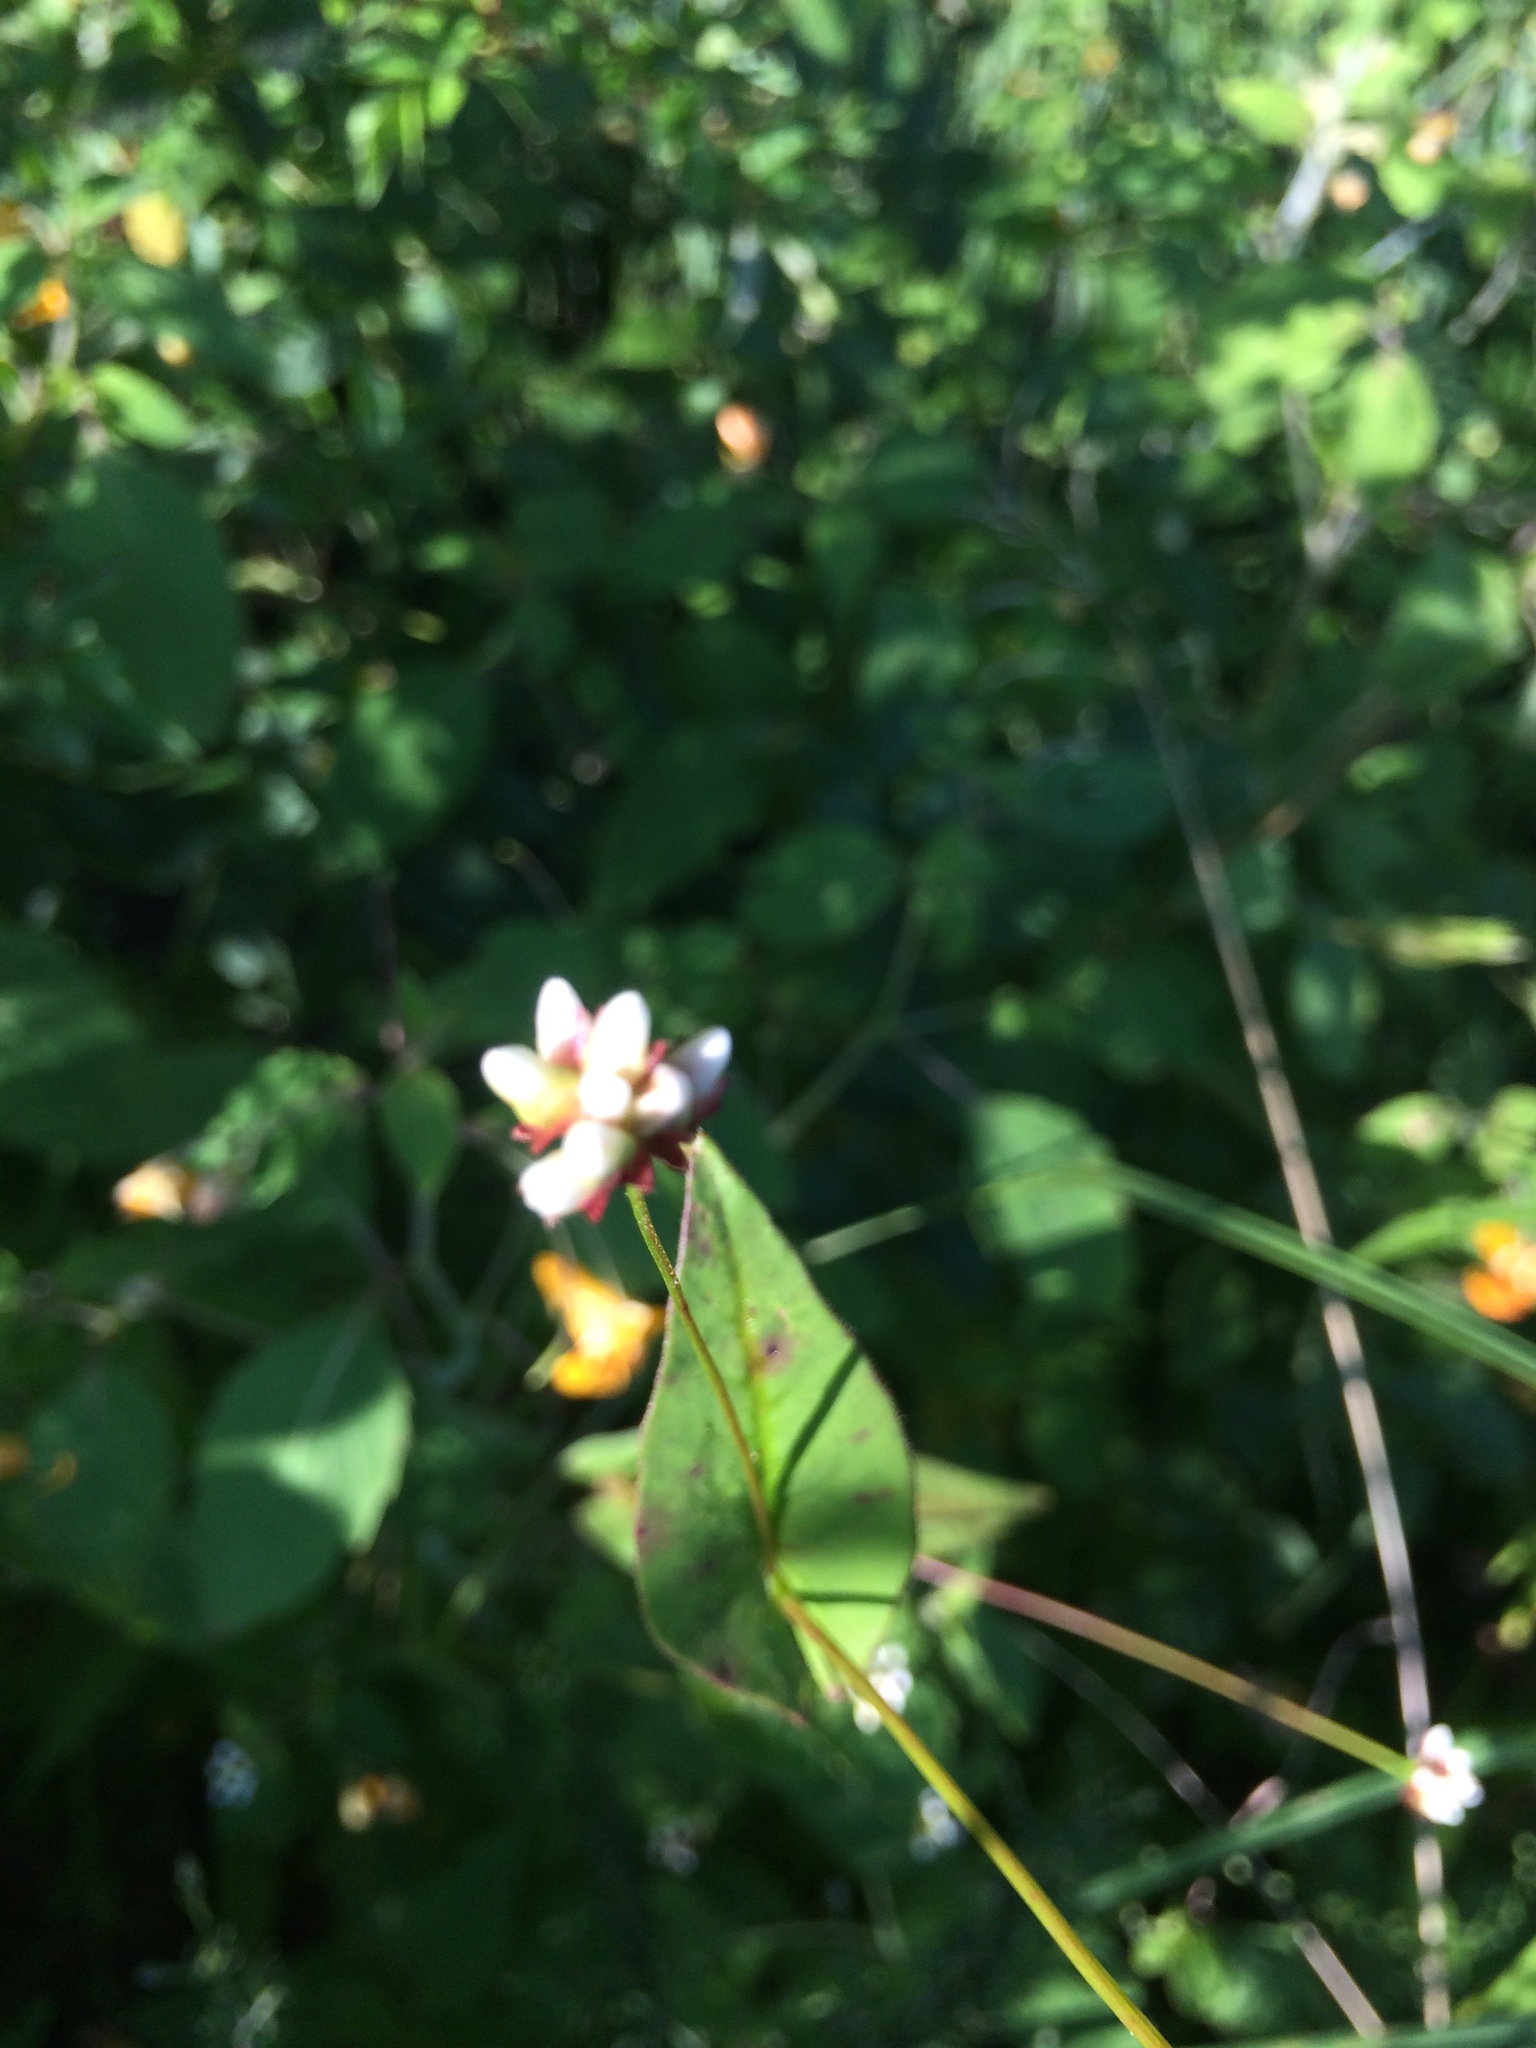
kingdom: Plantae
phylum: Tracheophyta
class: Magnoliopsida
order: Caryophyllales
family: Polygonaceae
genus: Persicaria
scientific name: Persicaria sagittata
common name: American tearthumb
